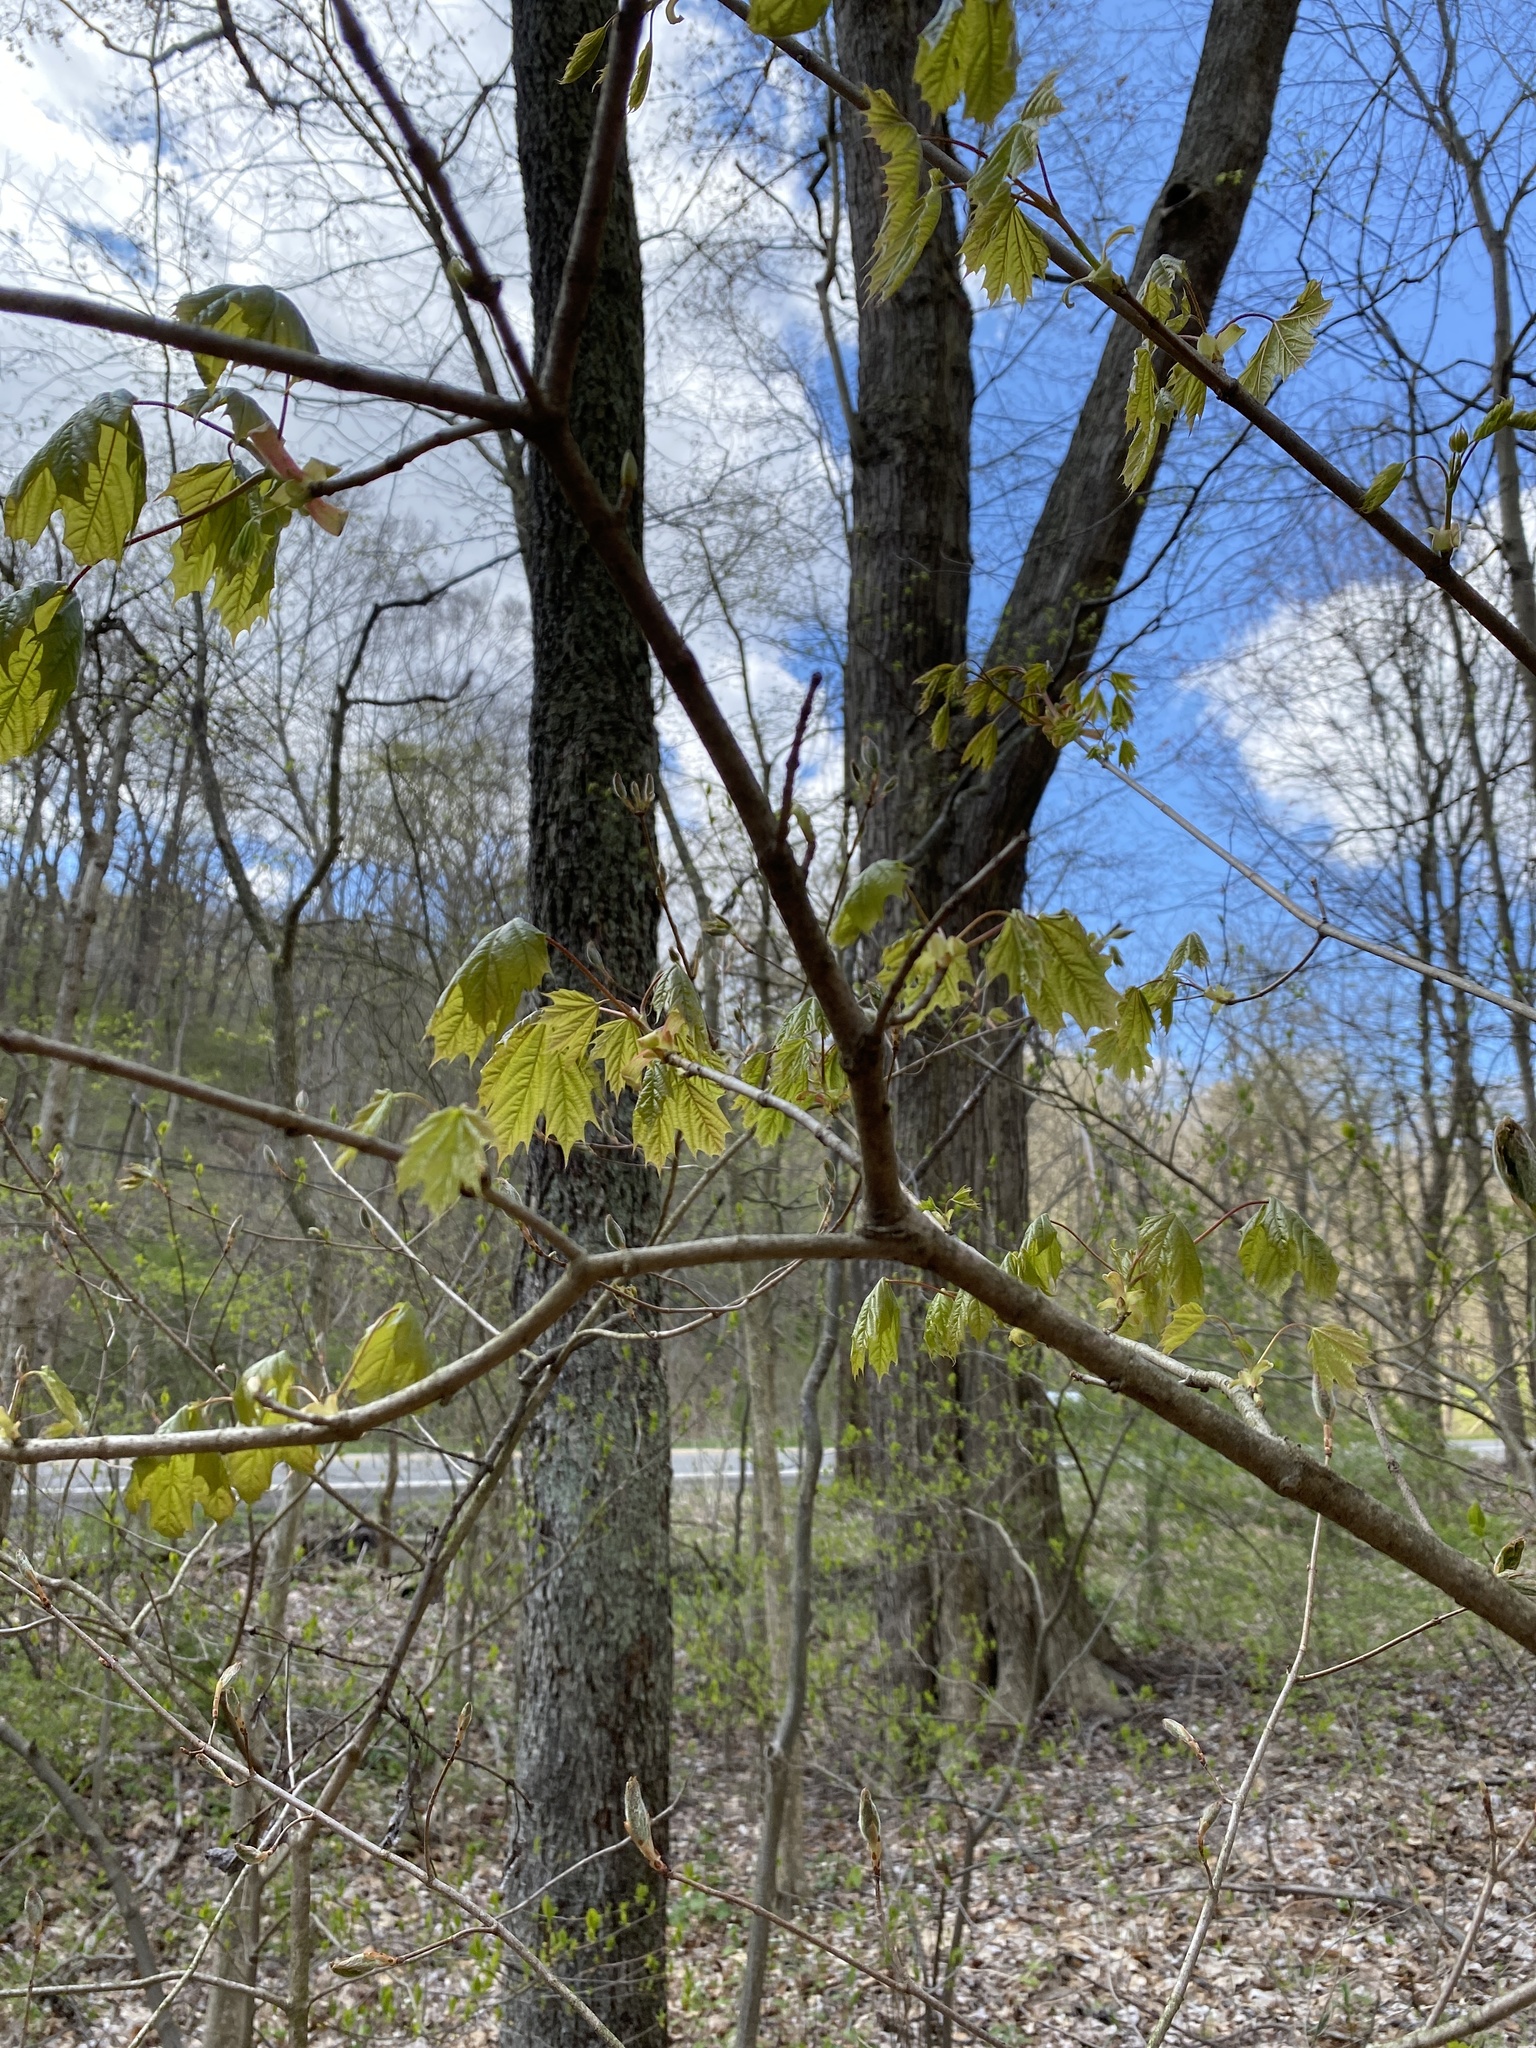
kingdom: Plantae
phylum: Tracheophyta
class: Magnoliopsida
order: Sapindales
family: Sapindaceae
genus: Acer
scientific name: Acer platanoides
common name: Norway maple
